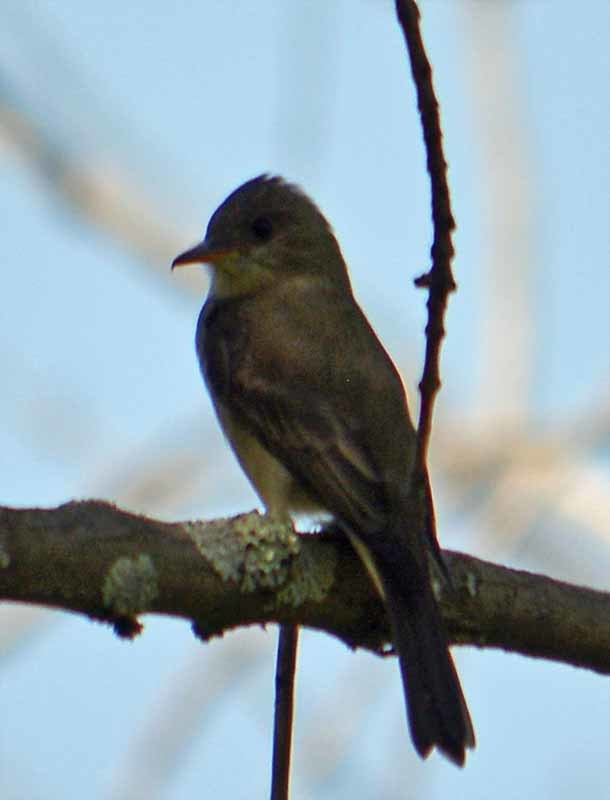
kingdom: Animalia
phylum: Chordata
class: Aves
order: Passeriformes
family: Tyrannidae
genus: Contopus
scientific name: Contopus pertinax
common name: Greater pewee
